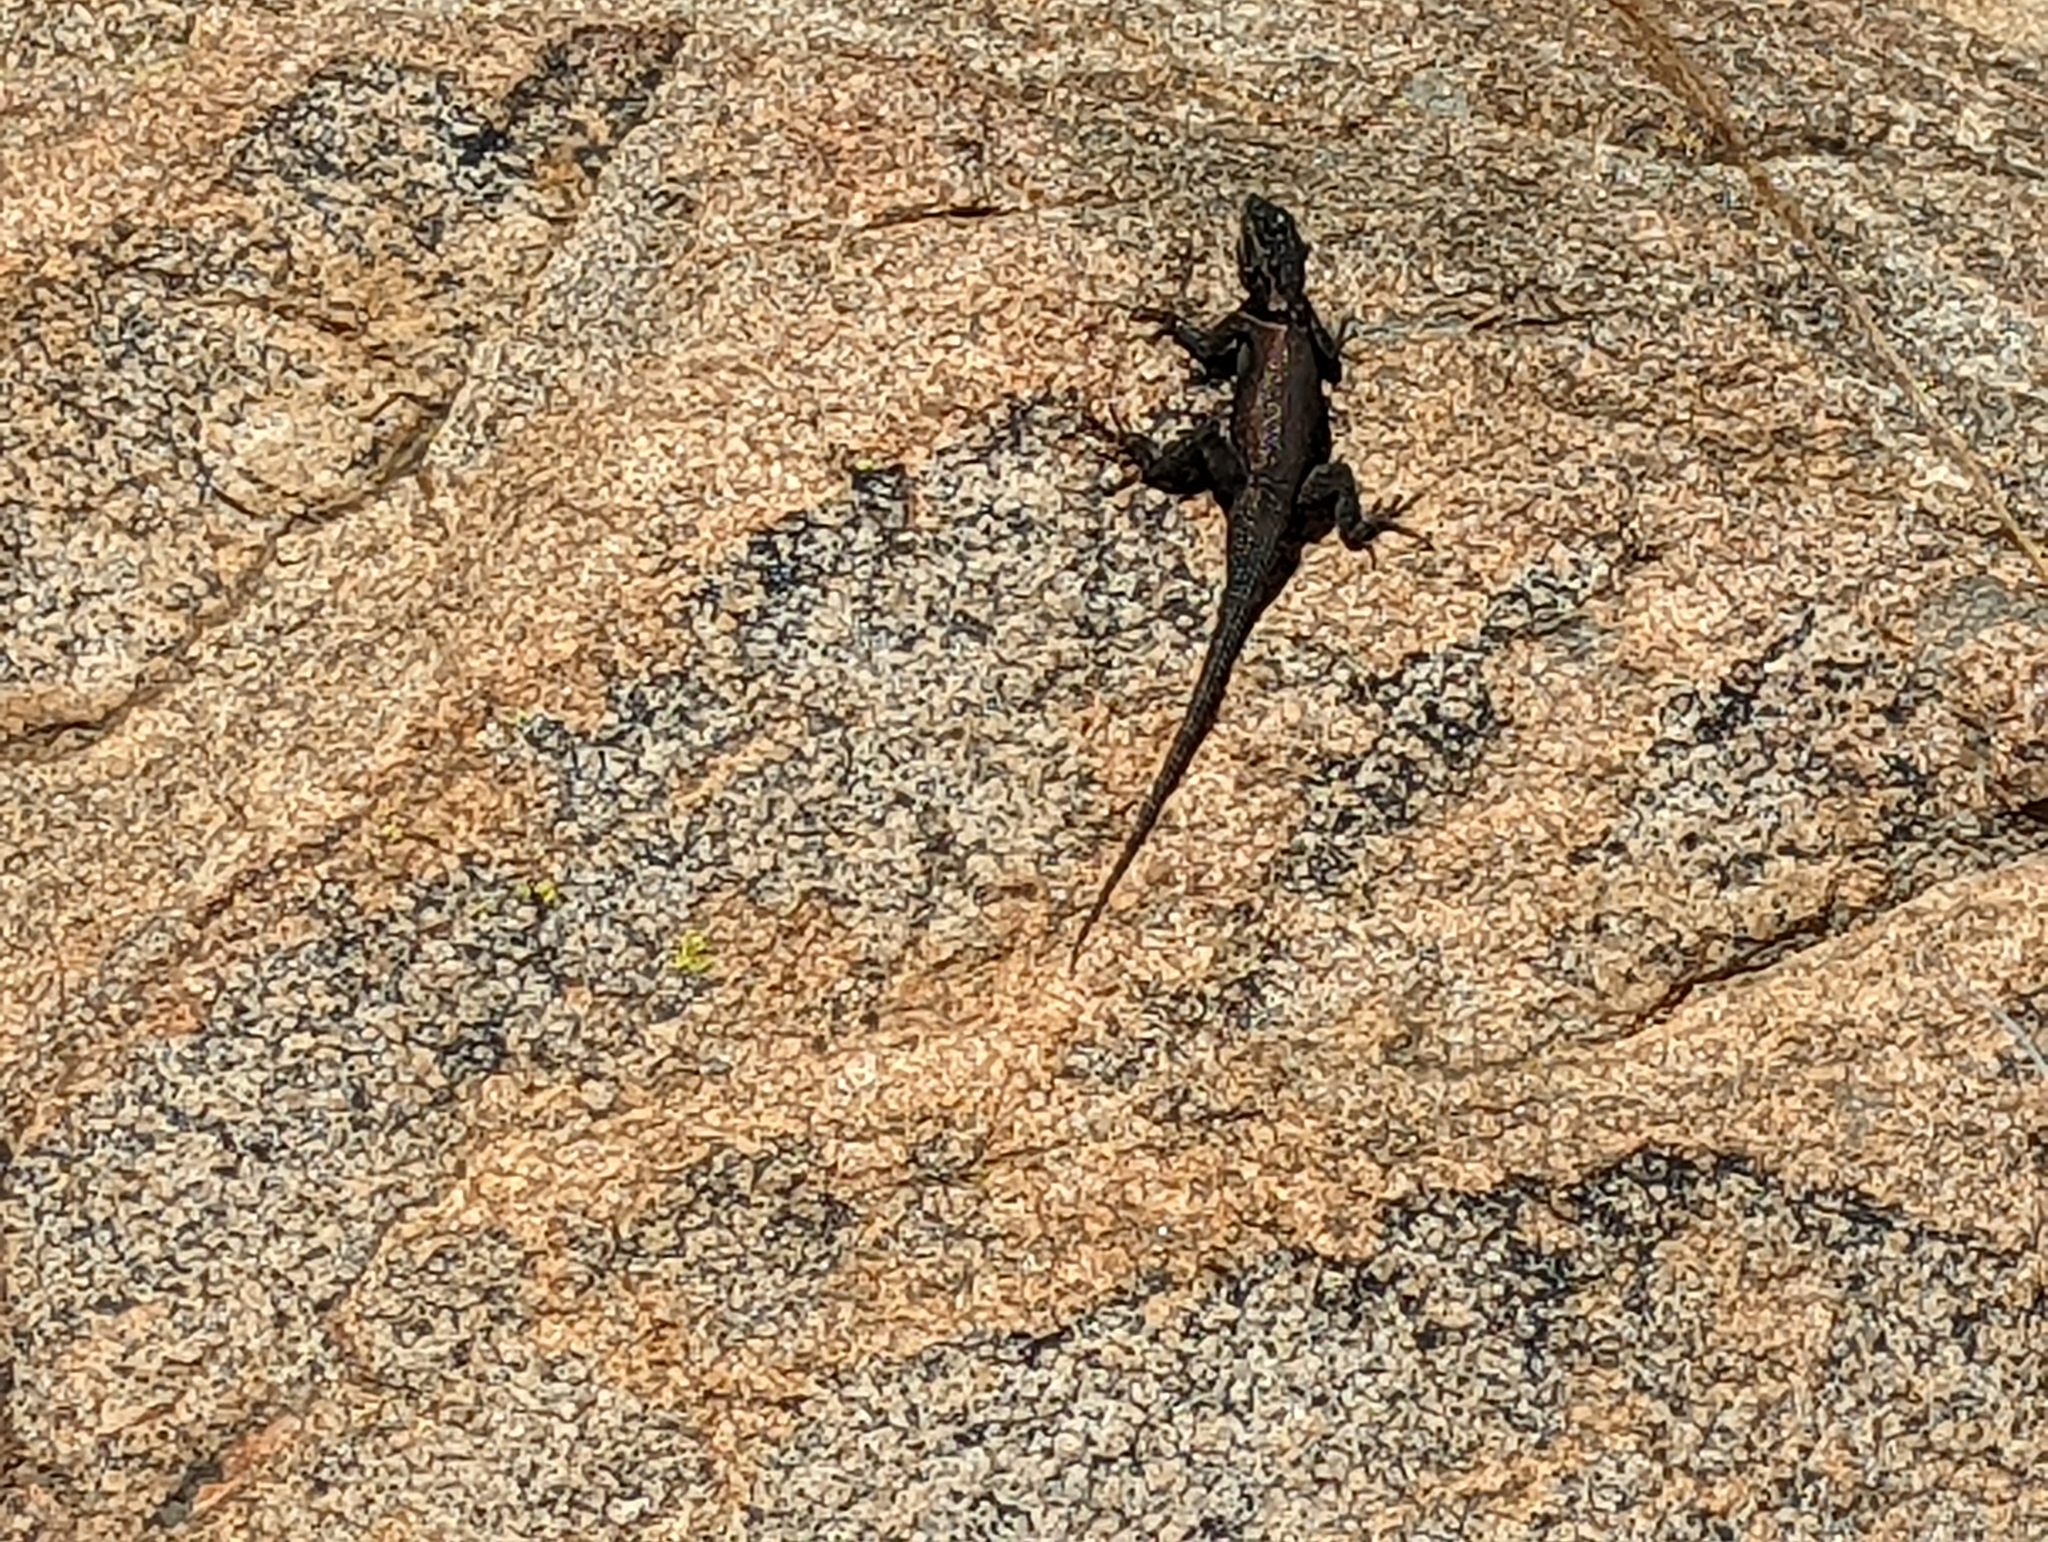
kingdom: Animalia
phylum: Chordata
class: Squamata
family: Phrynosomatidae
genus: Sceloporus
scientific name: Sceloporus jarrovii
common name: Yarrow's spiny lizard
